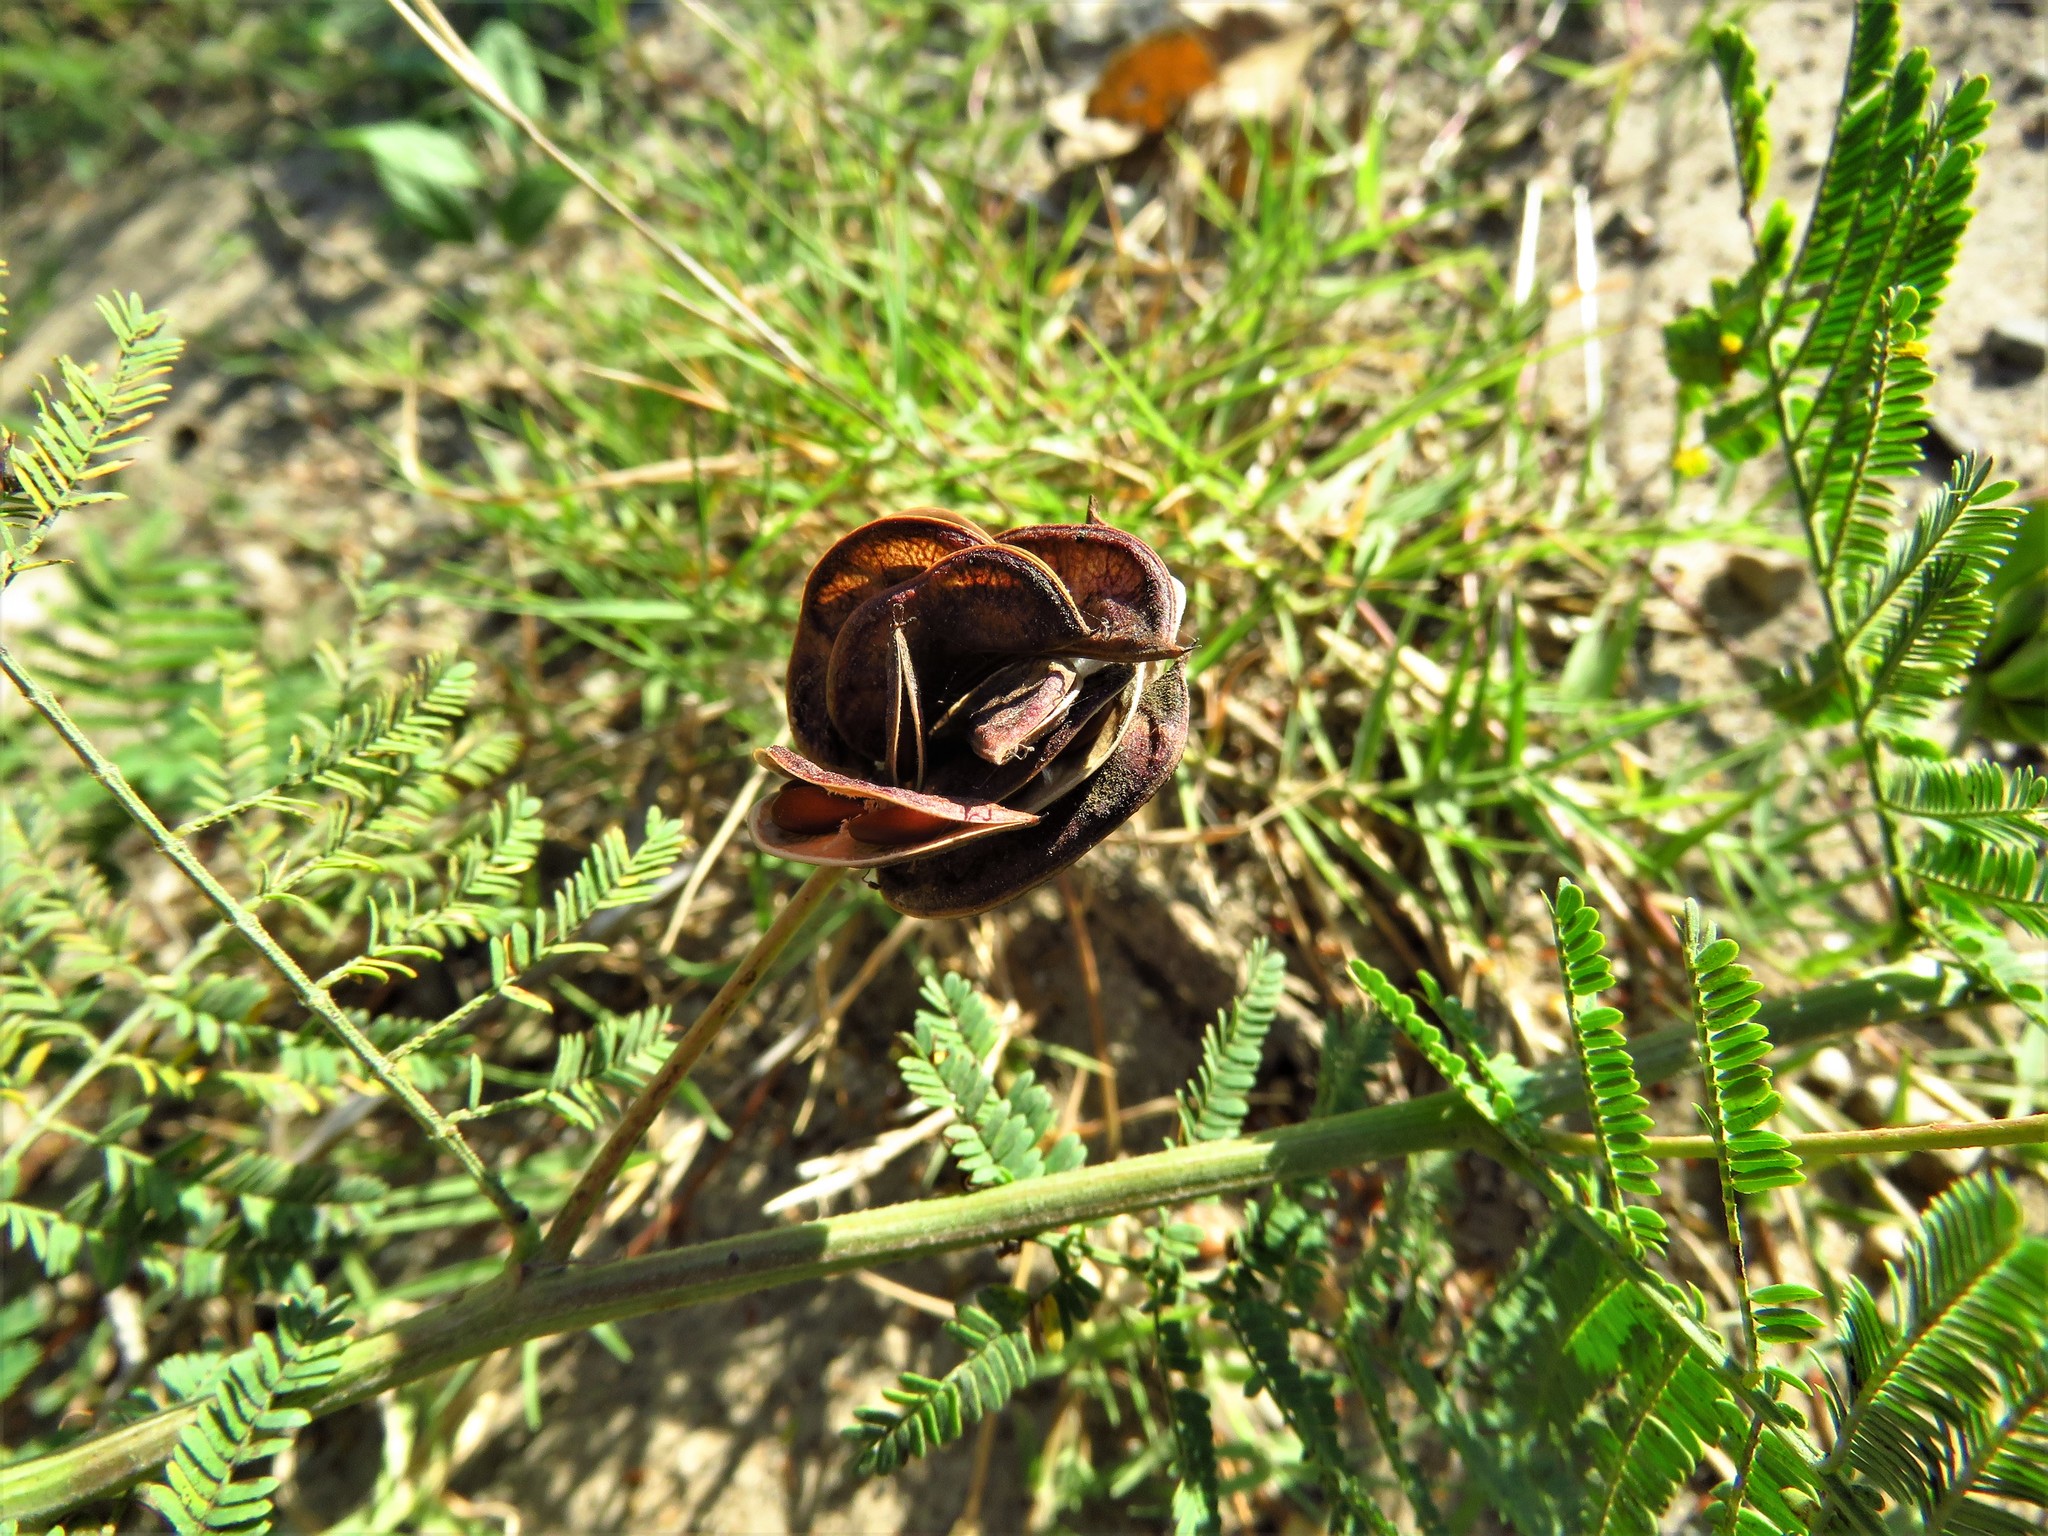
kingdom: Plantae
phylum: Tracheophyta
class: Magnoliopsida
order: Fabales
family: Fabaceae
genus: Desmanthus
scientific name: Desmanthus illinoensis
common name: Illinois bundle-flower
